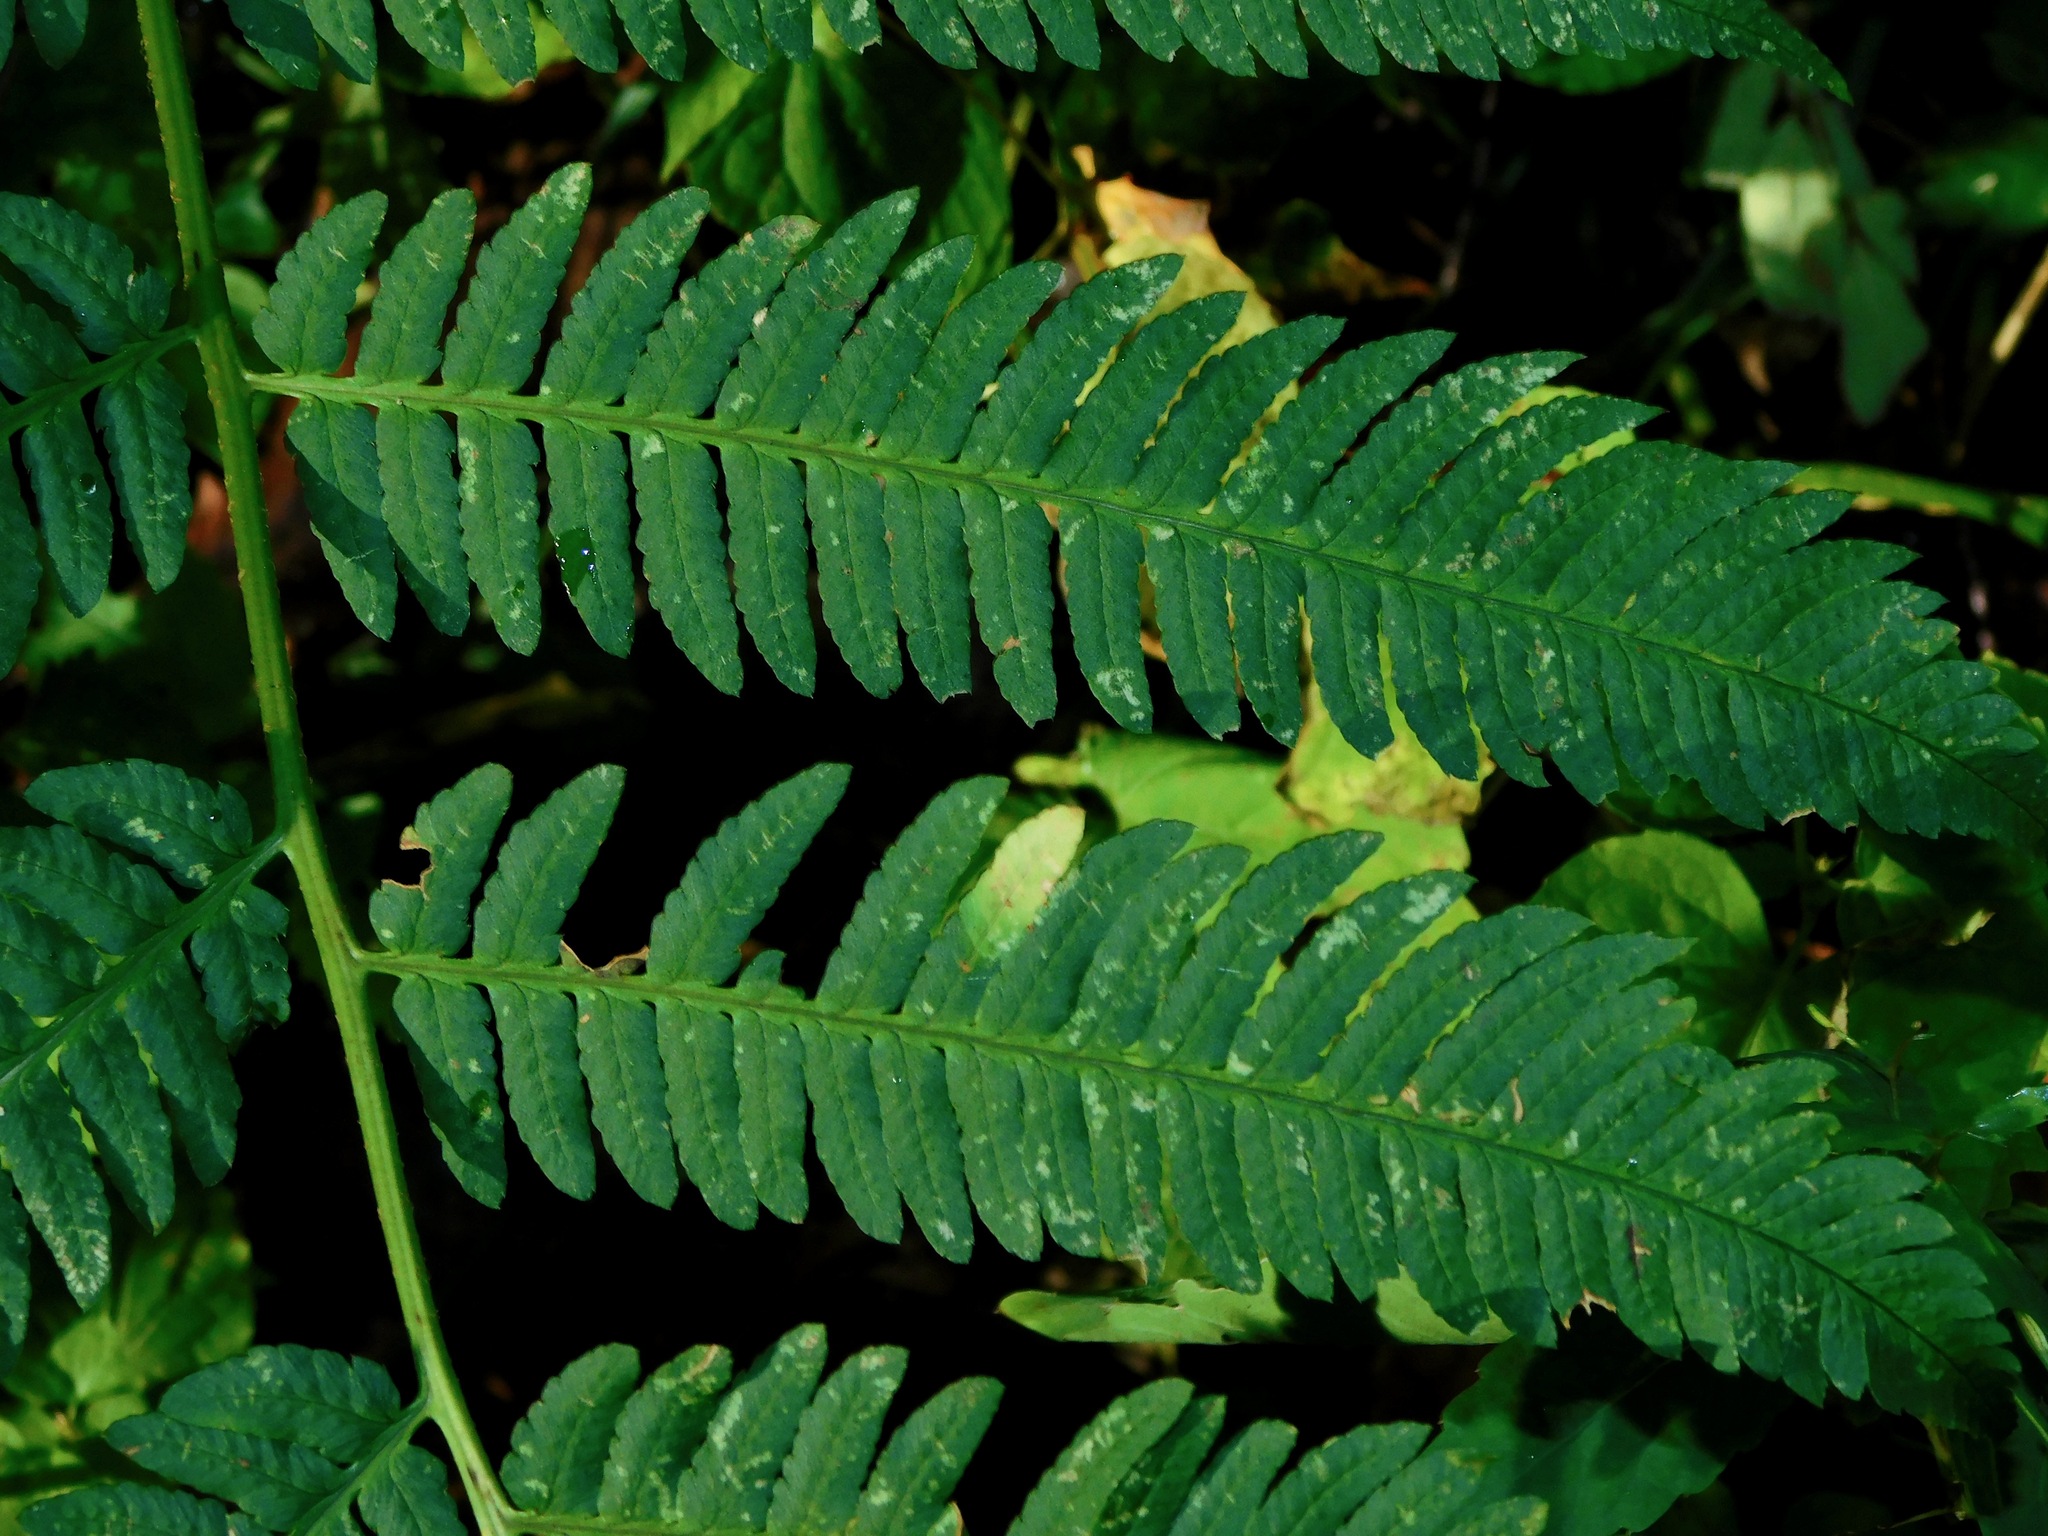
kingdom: Plantae
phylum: Tracheophyta
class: Polypodiopsida
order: Polypodiales
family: Dryopteridaceae
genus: Dryopteris
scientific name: Dryopteris goldieana
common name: Goldie's fern
